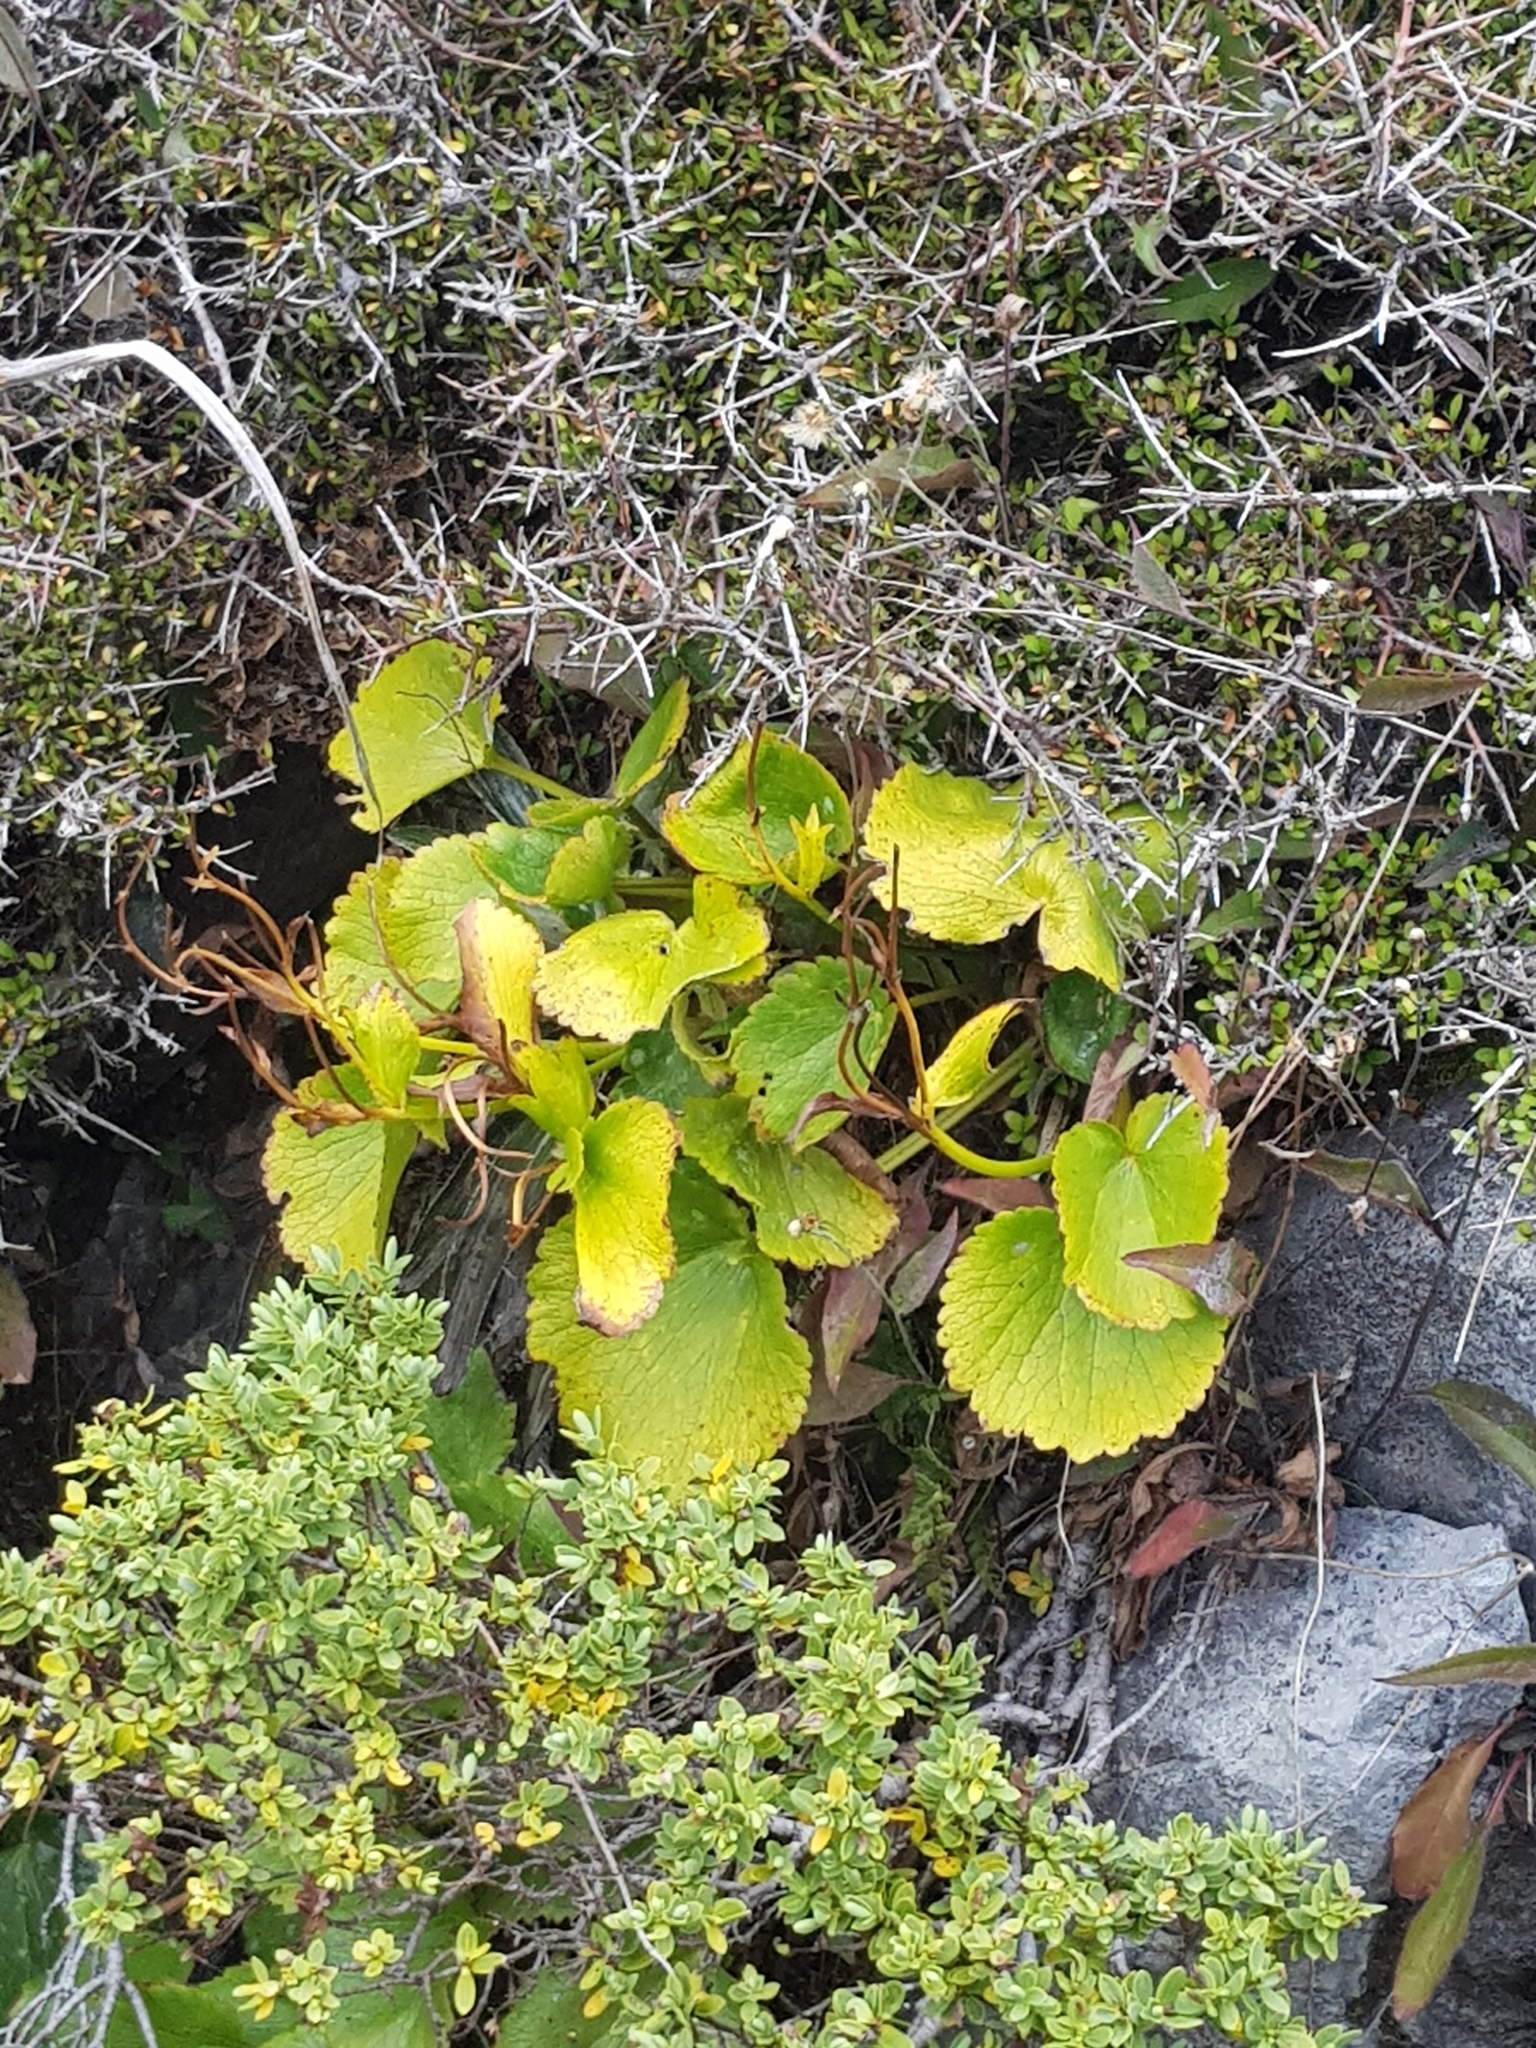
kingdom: Plantae
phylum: Tracheophyta
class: Magnoliopsida
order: Ranunculales
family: Ranunculaceae
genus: Ranunculus
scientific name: Ranunculus insignis
